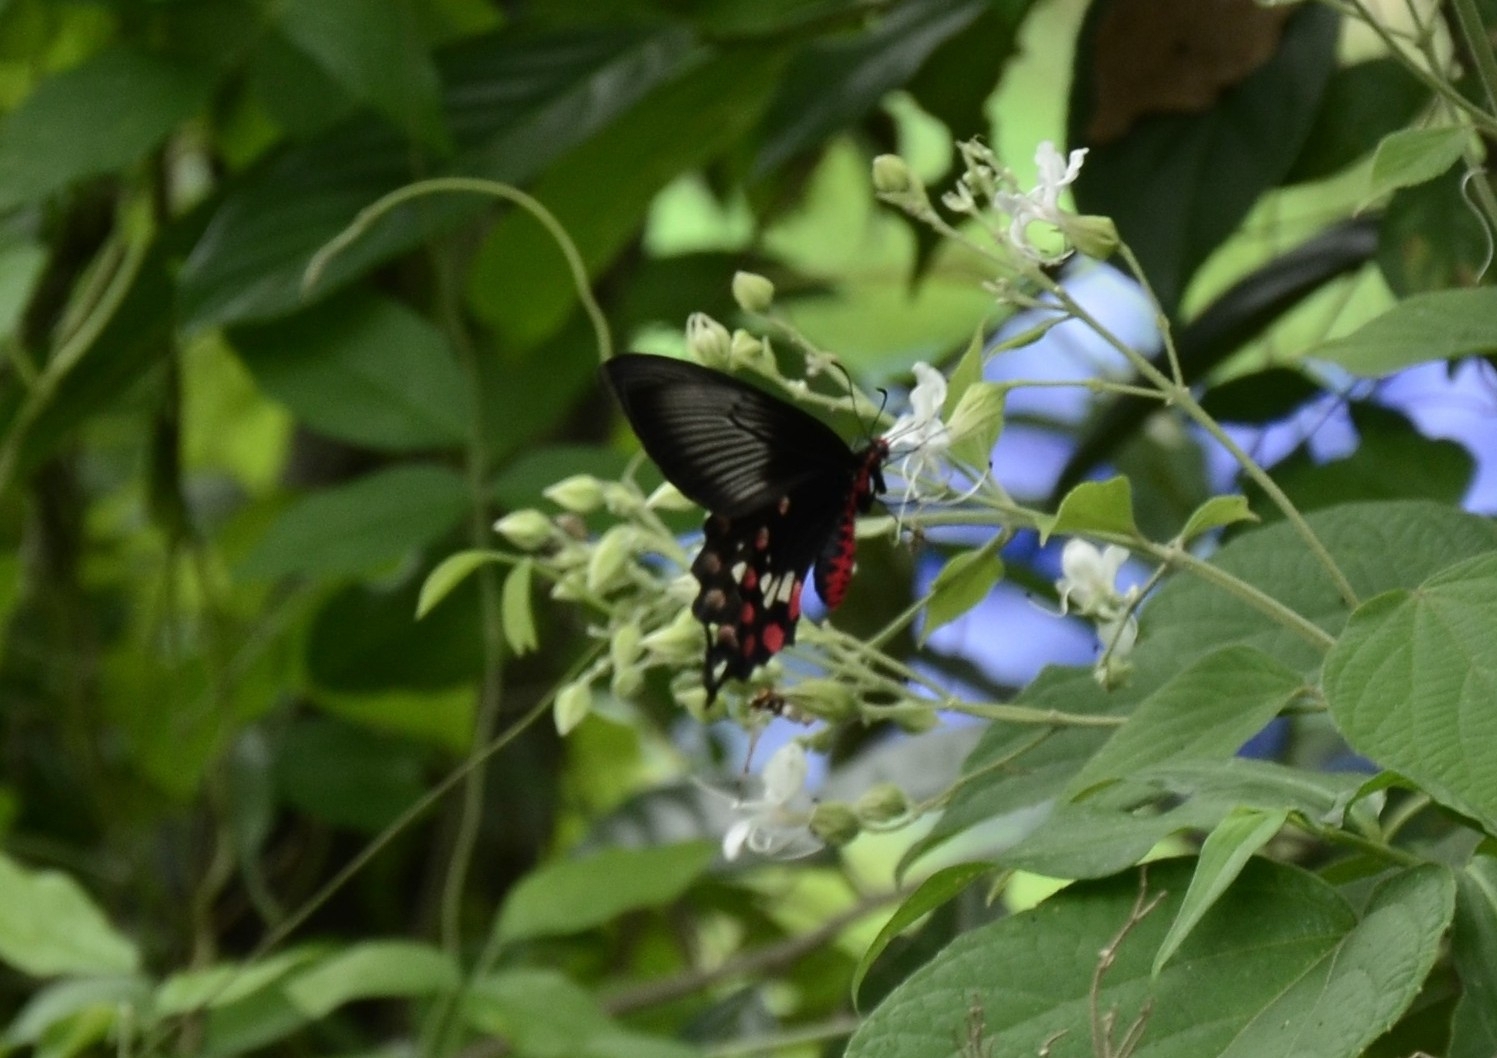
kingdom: Animalia
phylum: Arthropoda
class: Insecta
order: Lepidoptera
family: Papilionidae
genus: Pachliopta
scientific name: Pachliopta aristolochiae
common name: Common rose
